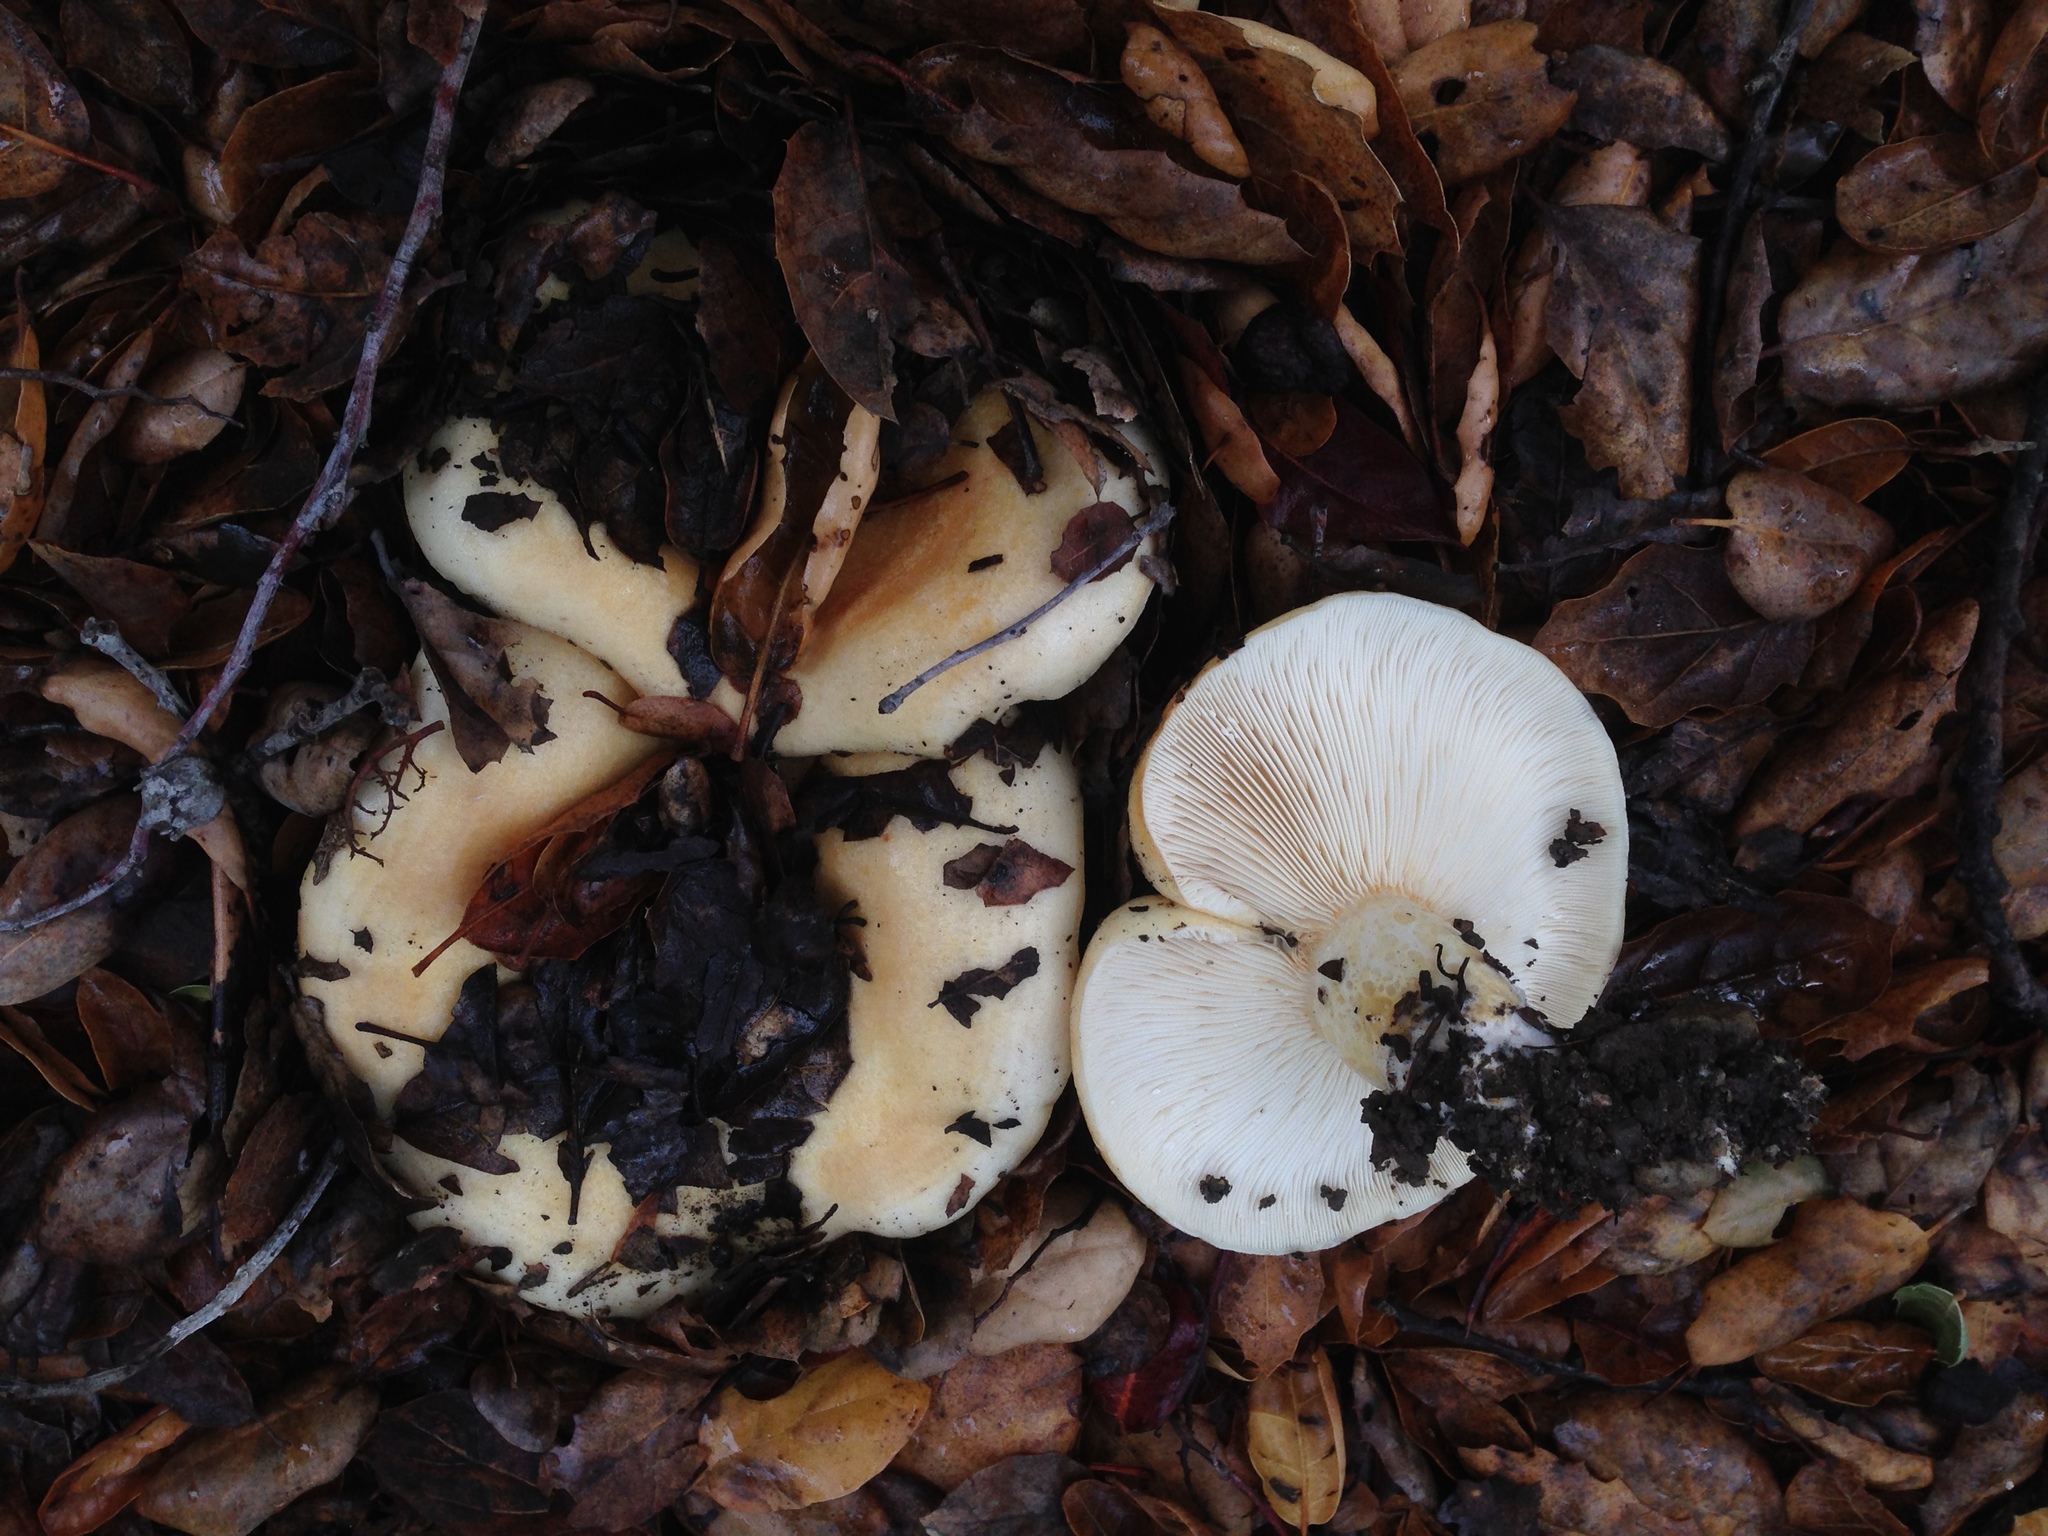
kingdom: Fungi
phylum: Basidiomycota
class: Agaricomycetes
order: Russulales
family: Russulaceae
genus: Lactarius
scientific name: Lactarius alnicola
